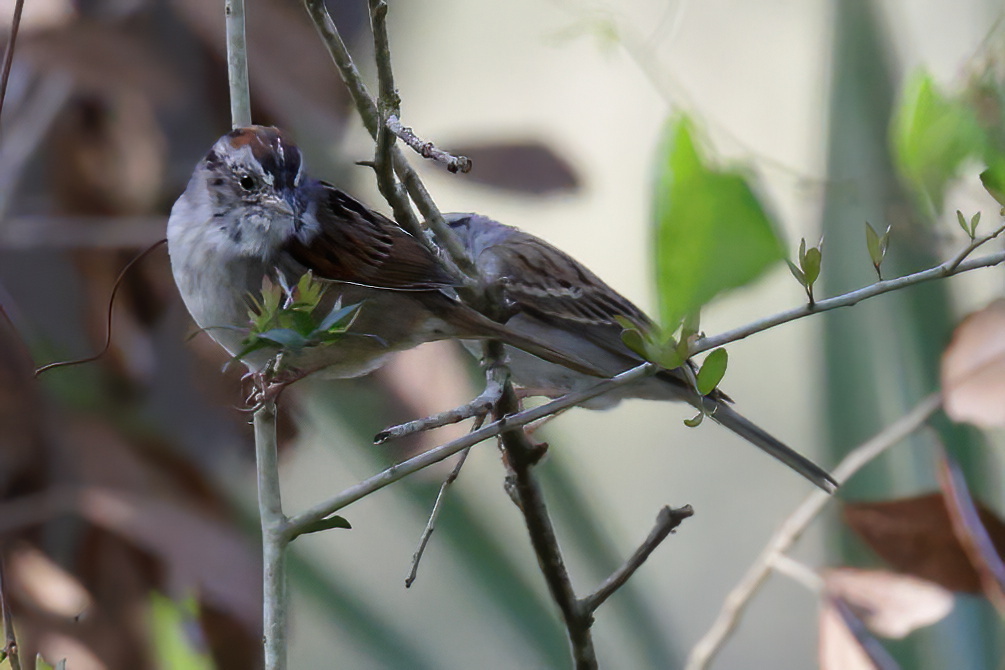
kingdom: Animalia
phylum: Chordata
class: Aves
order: Passeriformes
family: Passerellidae
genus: Spizella
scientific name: Spizella passerina
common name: Chipping sparrow
